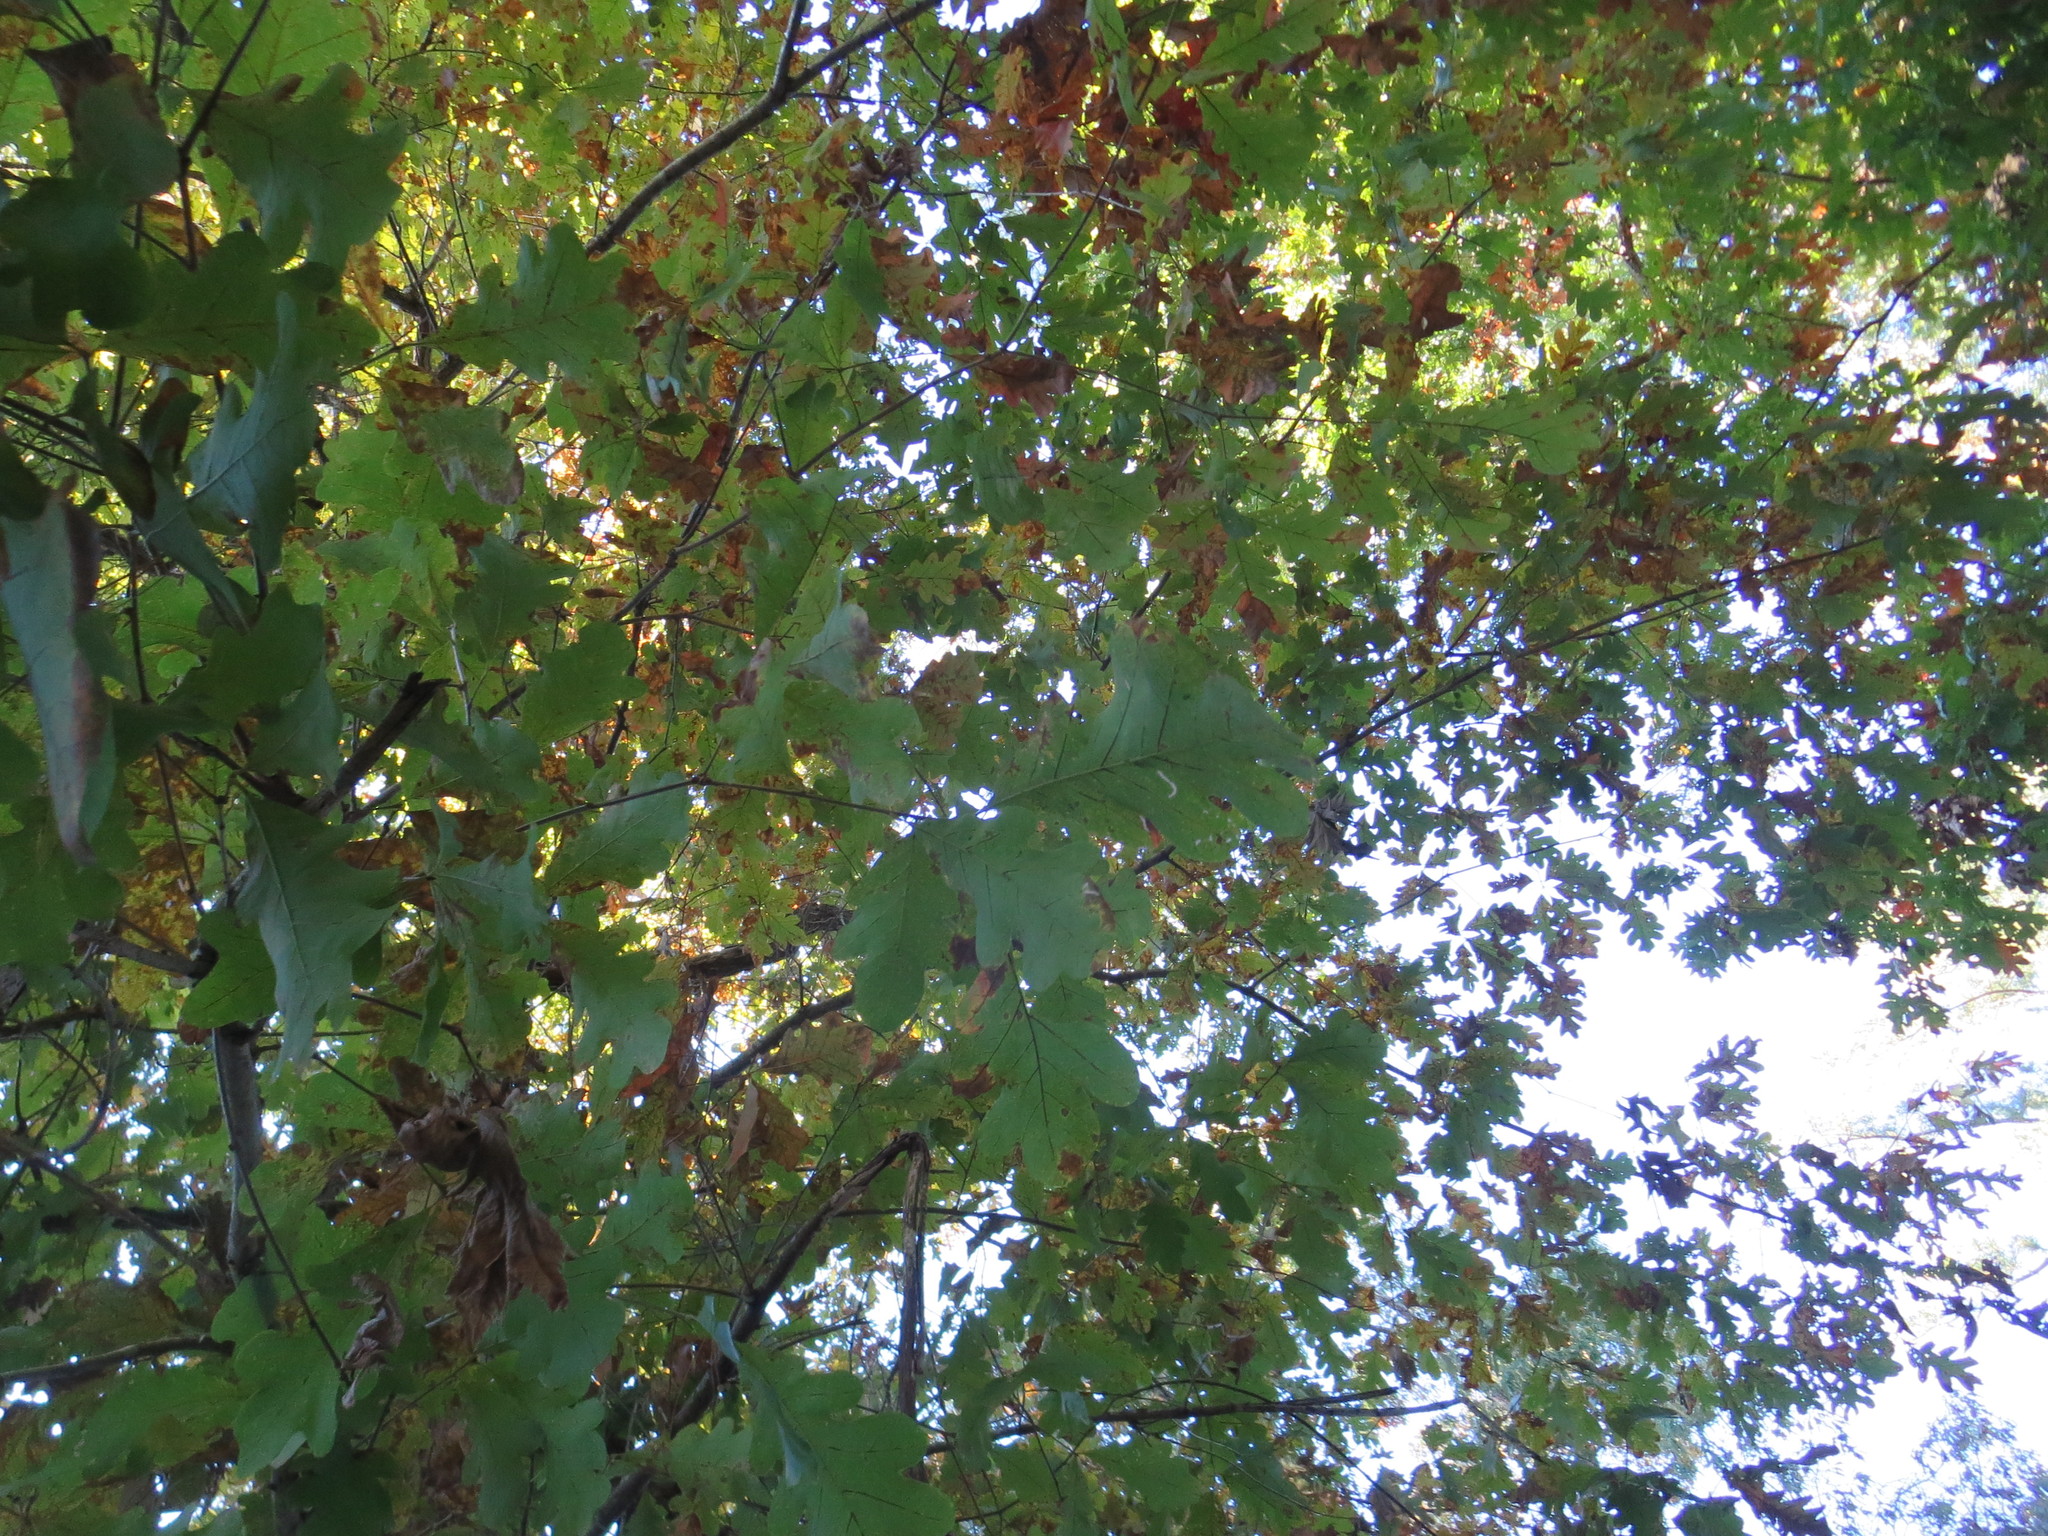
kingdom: Plantae
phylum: Tracheophyta
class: Magnoliopsida
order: Fagales
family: Fagaceae
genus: Quercus
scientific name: Quercus alba
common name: White oak
